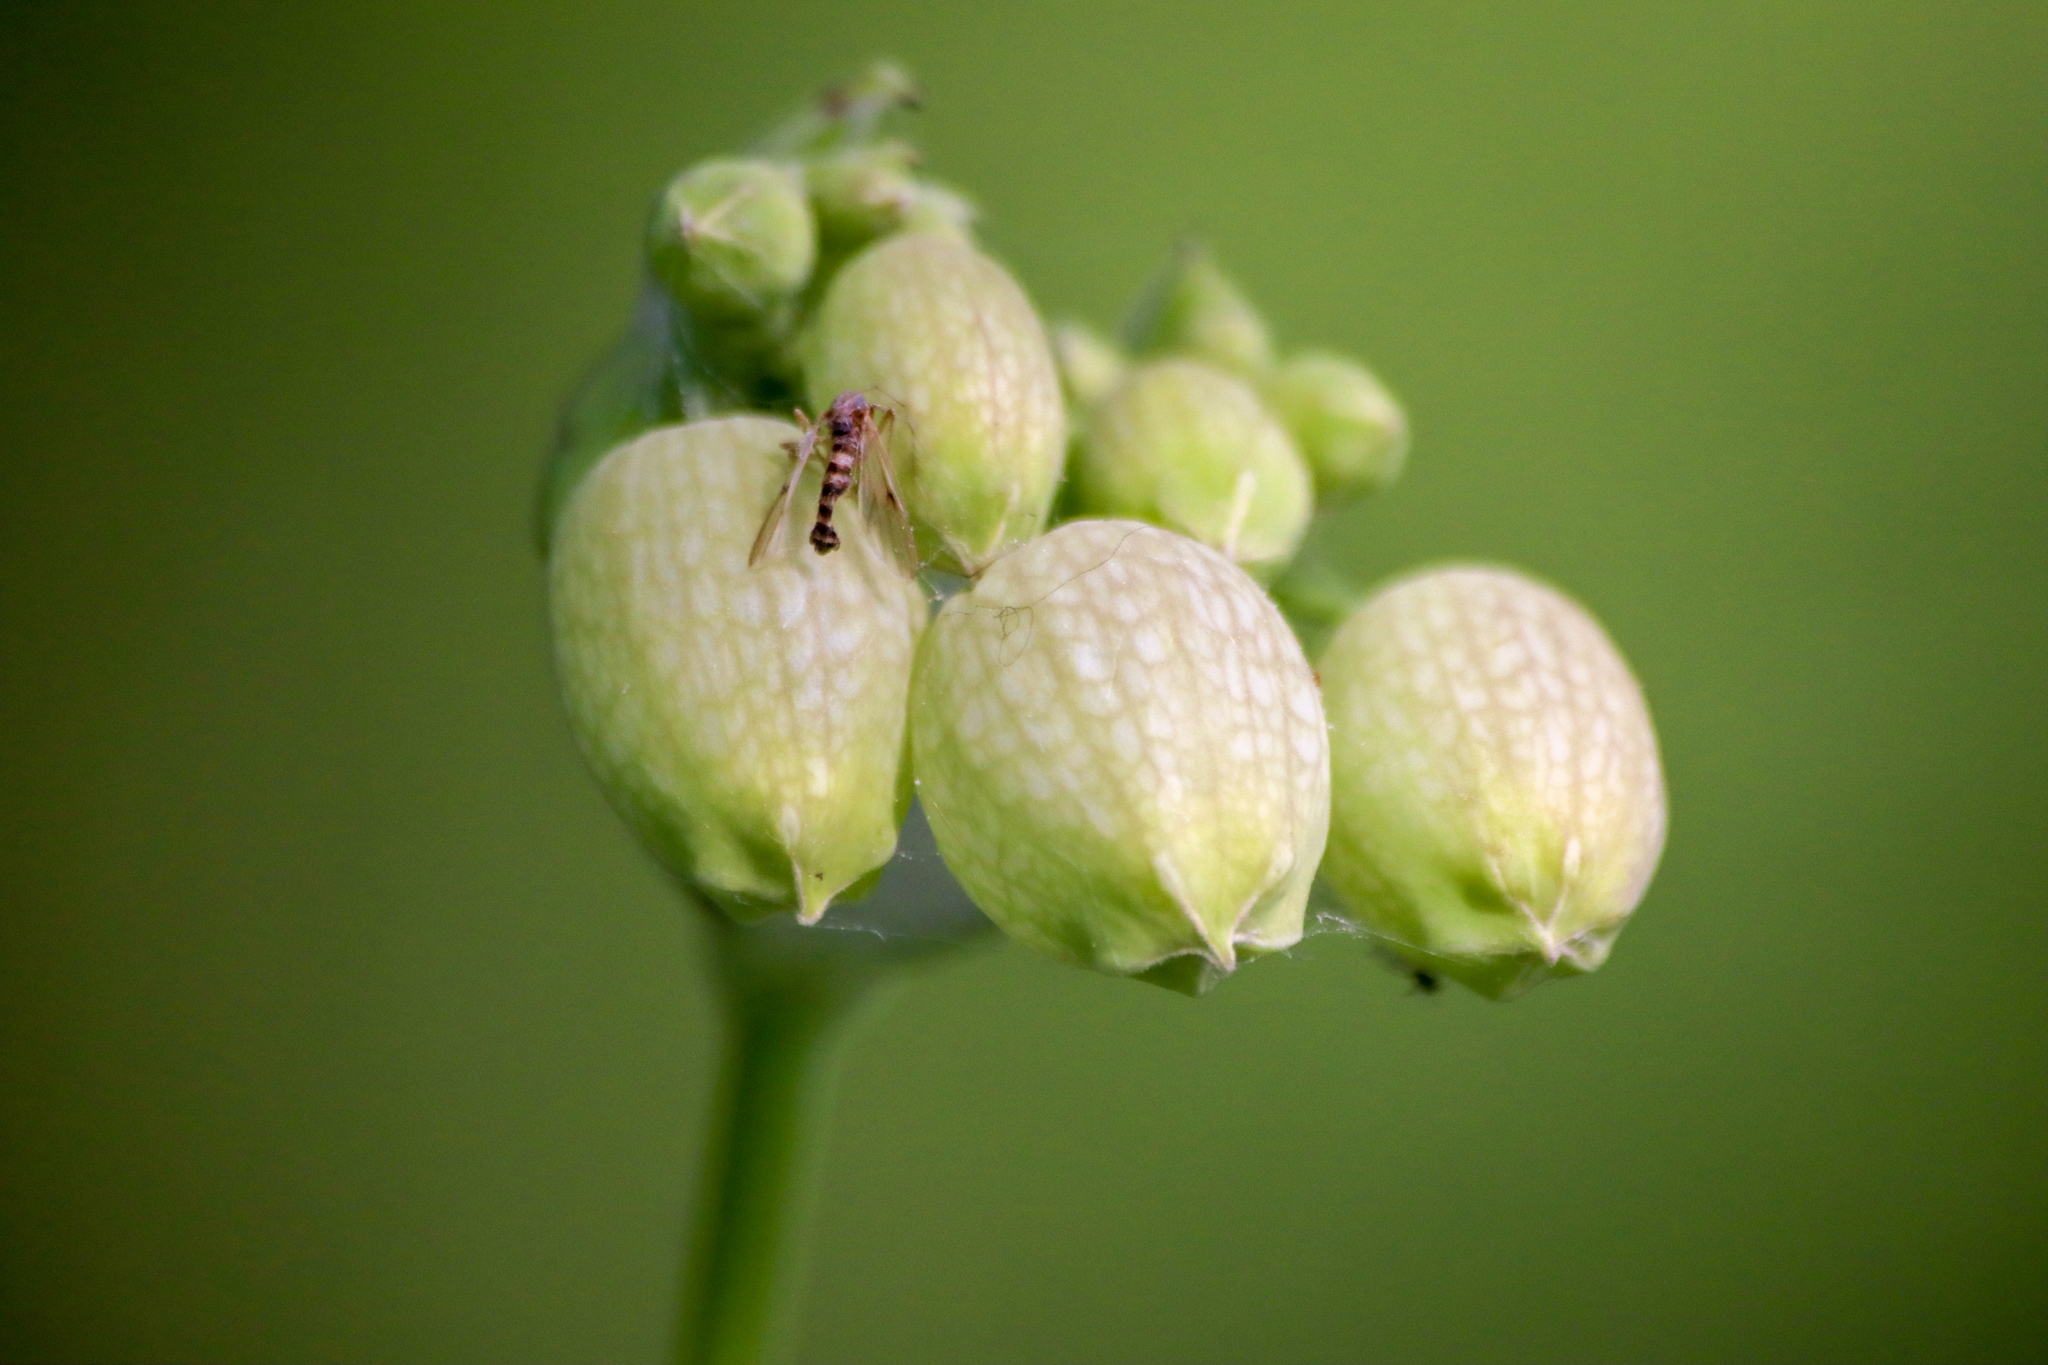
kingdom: Plantae
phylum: Tracheophyta
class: Magnoliopsida
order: Caryophyllales
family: Caryophyllaceae
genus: Silene
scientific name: Silene vulgaris
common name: Bladder campion
